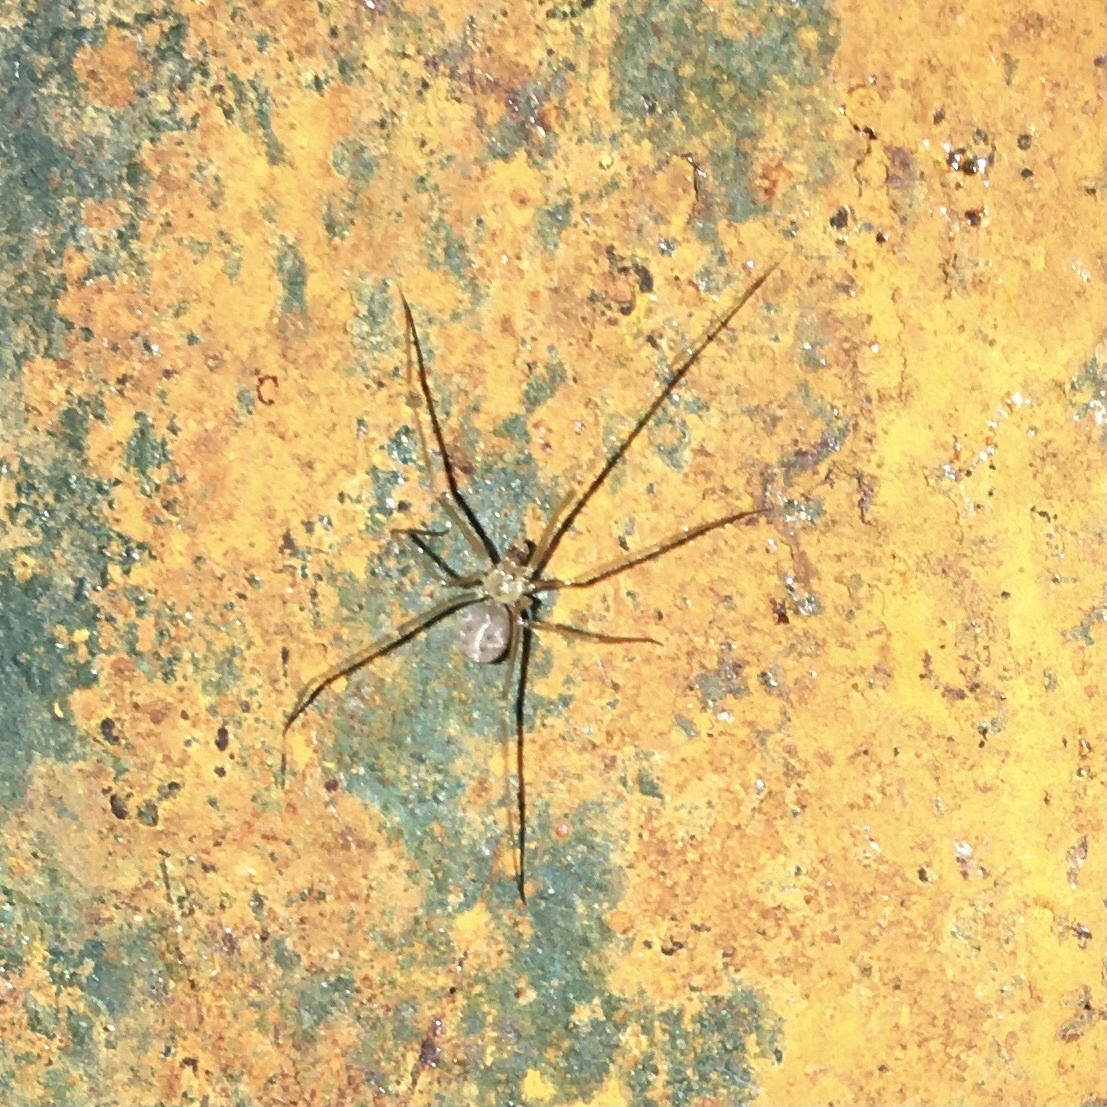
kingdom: Animalia
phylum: Arthropoda
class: Arachnida
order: Araneae
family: Pholcidae
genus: Spermophora
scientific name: Spermophora senoculata
